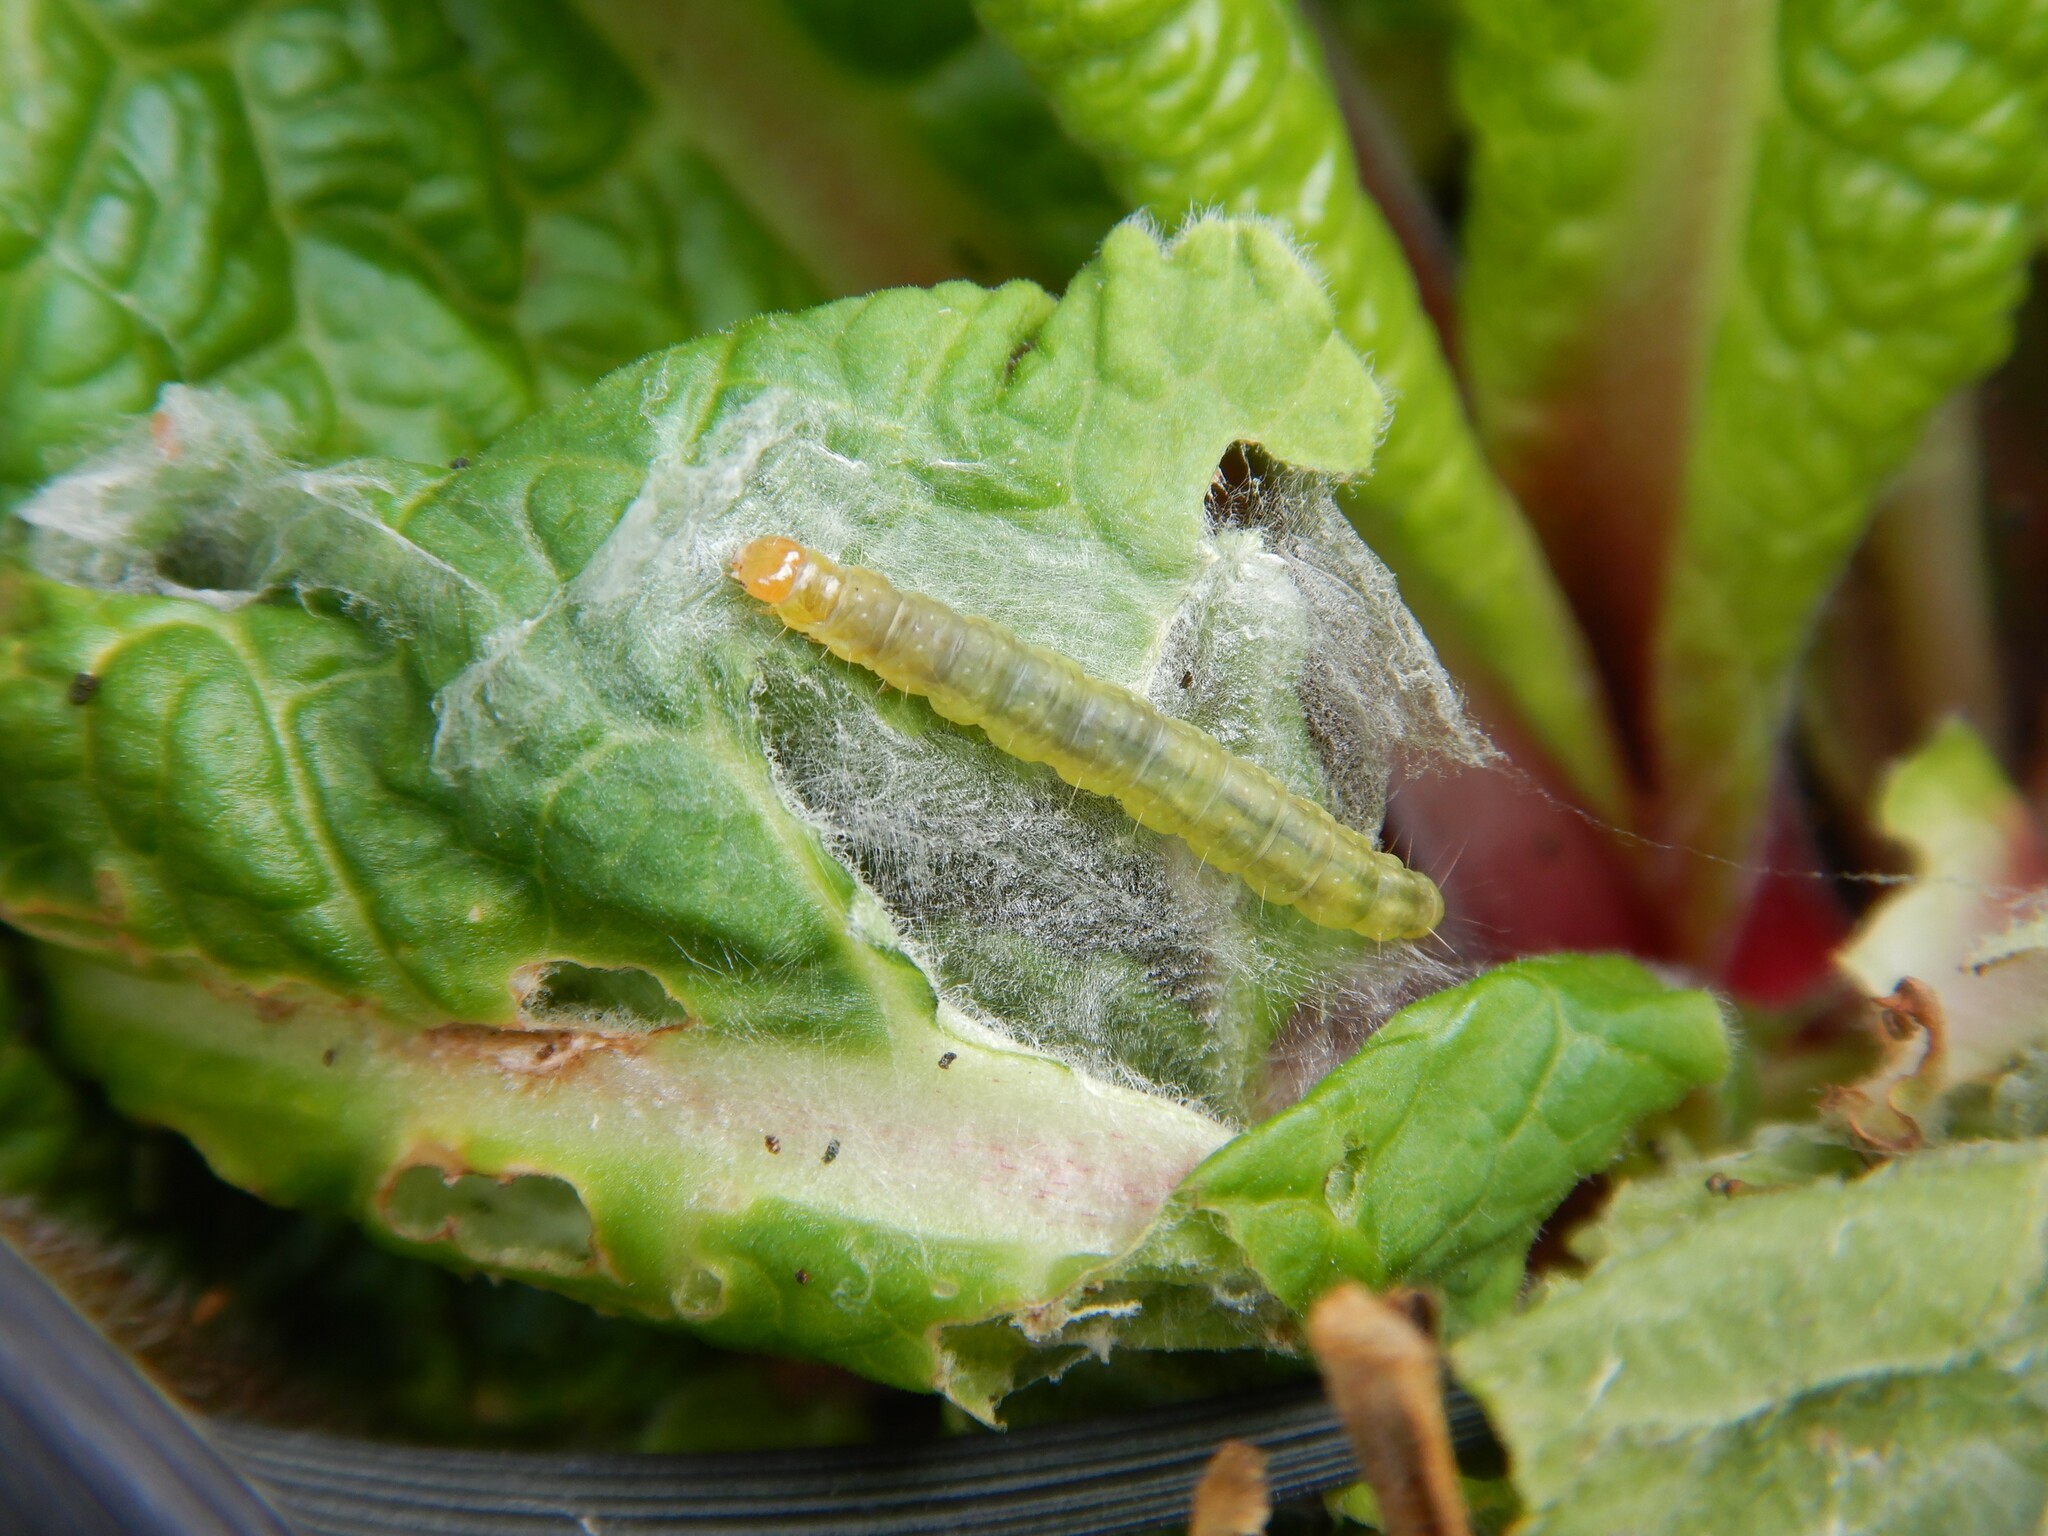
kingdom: Animalia
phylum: Arthropoda
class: Insecta
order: Lepidoptera
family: Tortricidae
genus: Epiphyas
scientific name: Epiphyas postvittana
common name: Light brown apple moth
